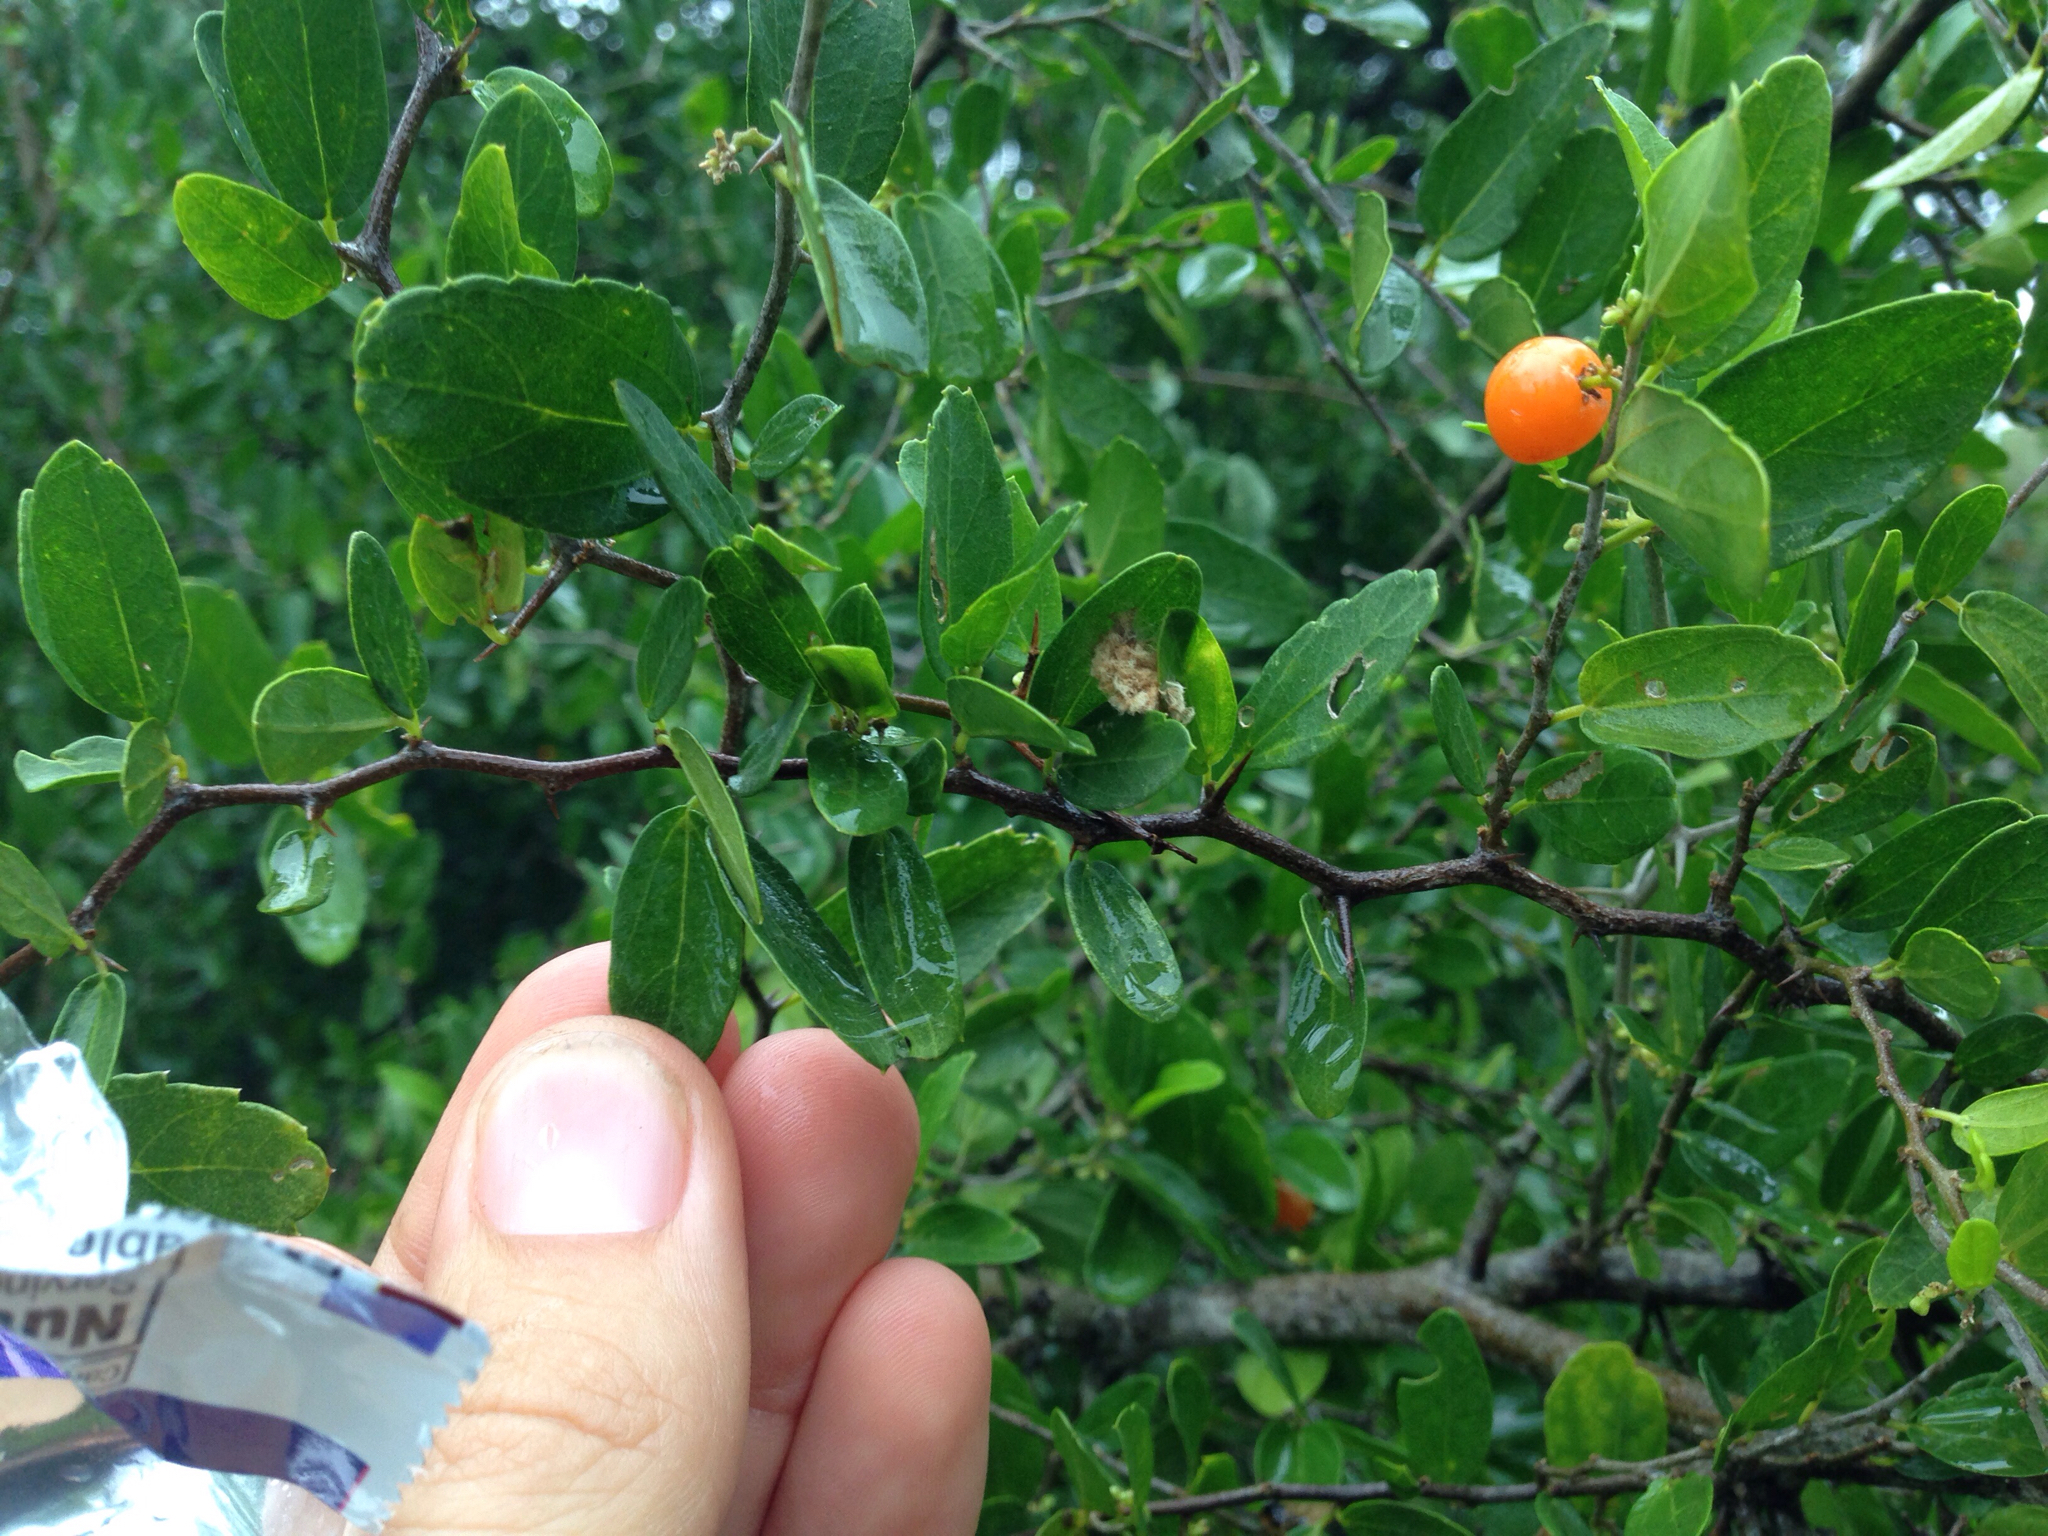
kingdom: Plantae
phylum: Tracheophyta
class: Magnoliopsida
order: Rosales
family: Cannabaceae
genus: Celtis
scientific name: Celtis pallida
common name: Desert hackberry
